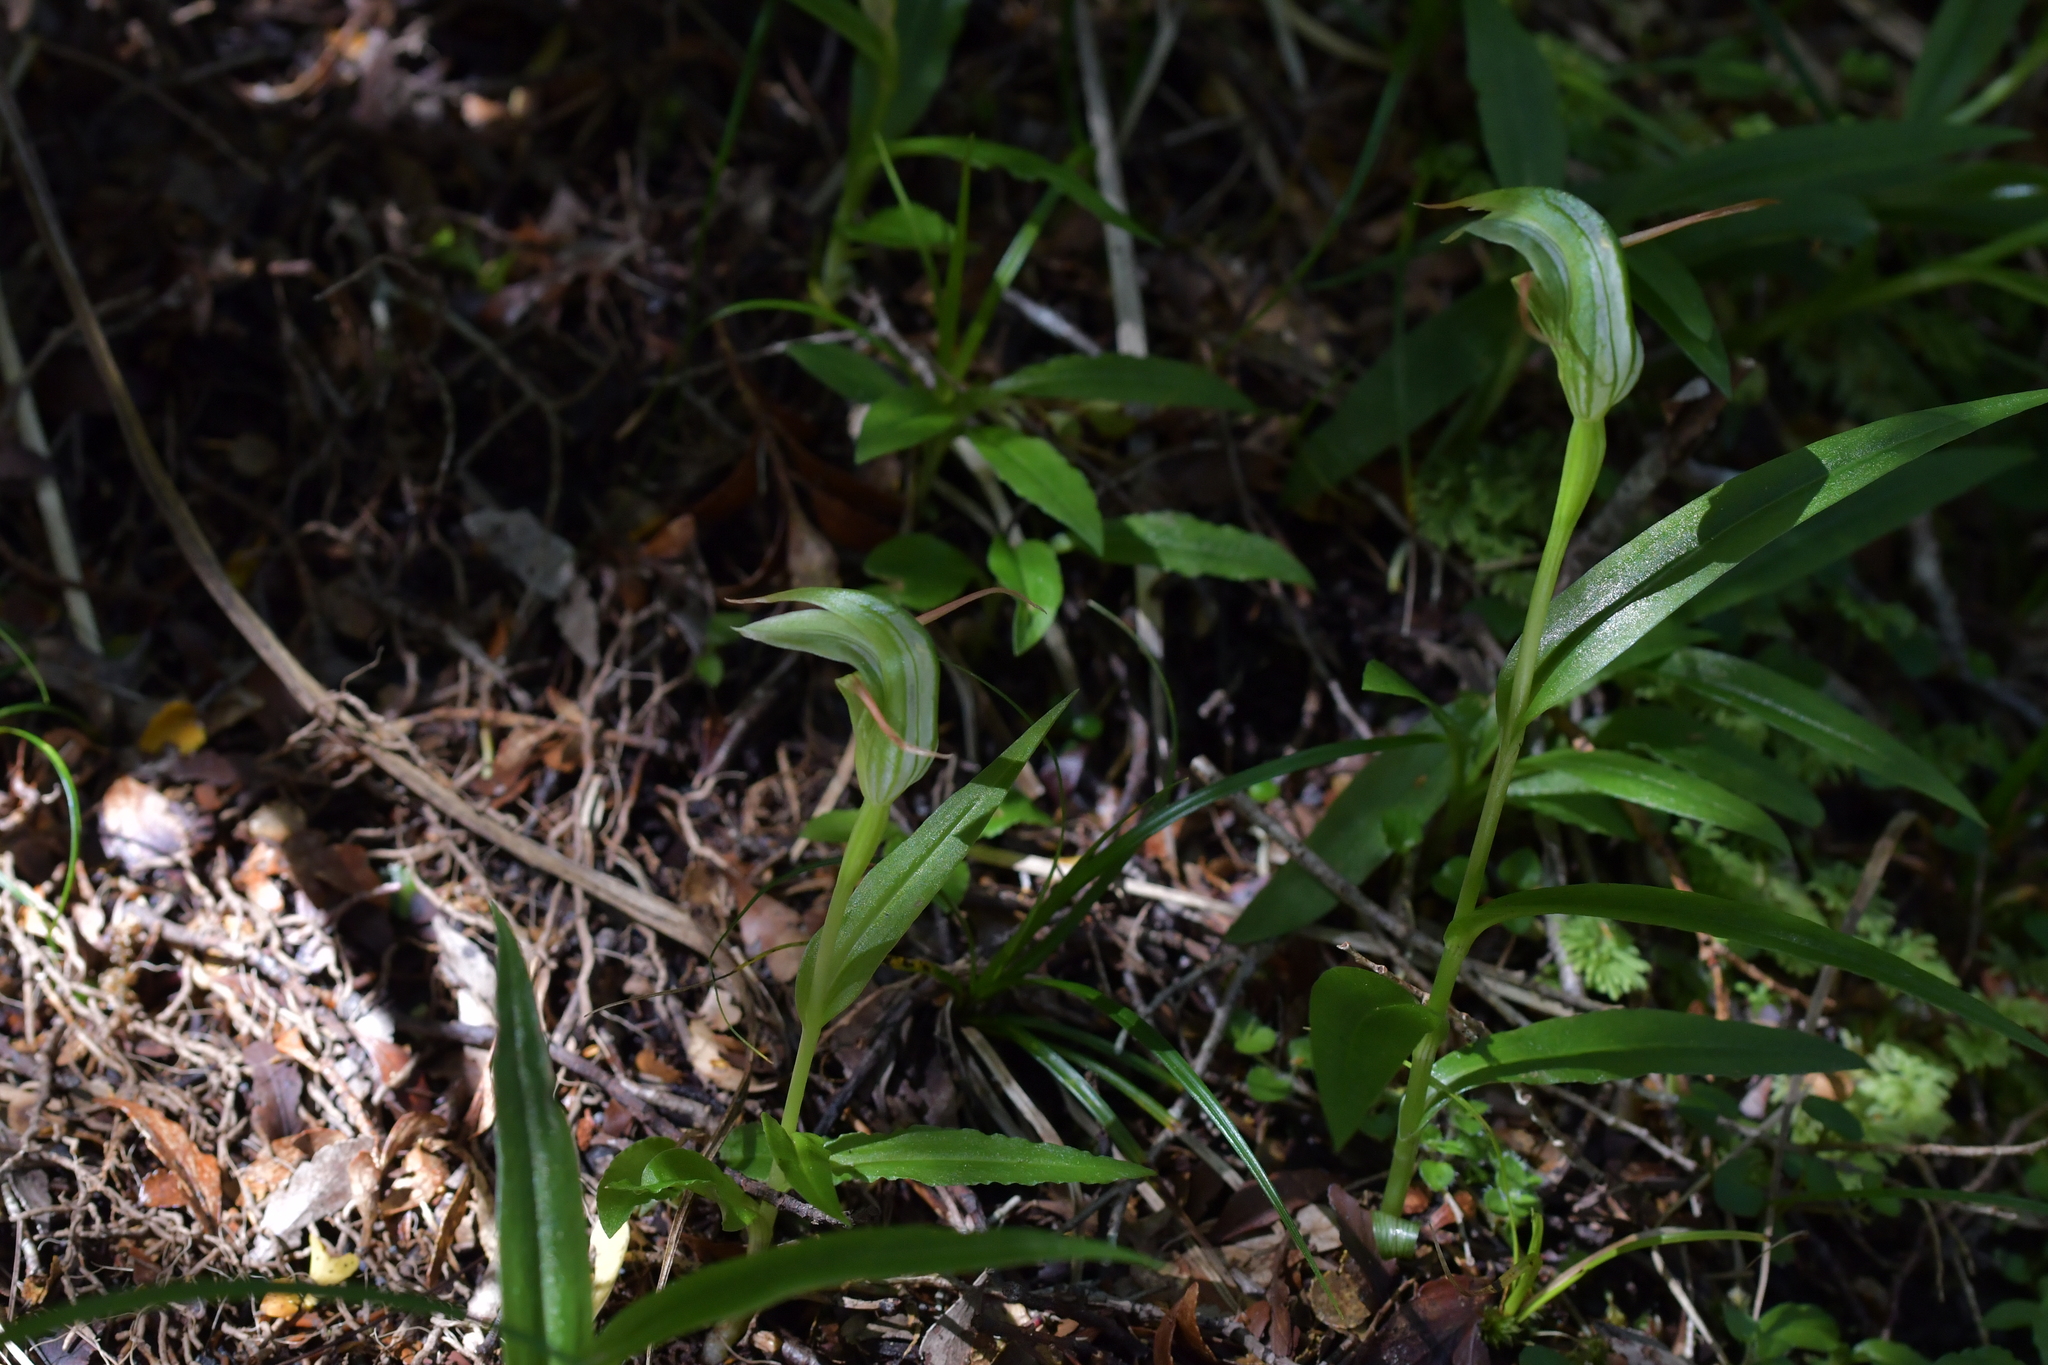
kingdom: Plantae
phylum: Tracheophyta
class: Liliopsida
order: Asparagales
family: Orchidaceae
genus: Pterostylis
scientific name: Pterostylis australis
